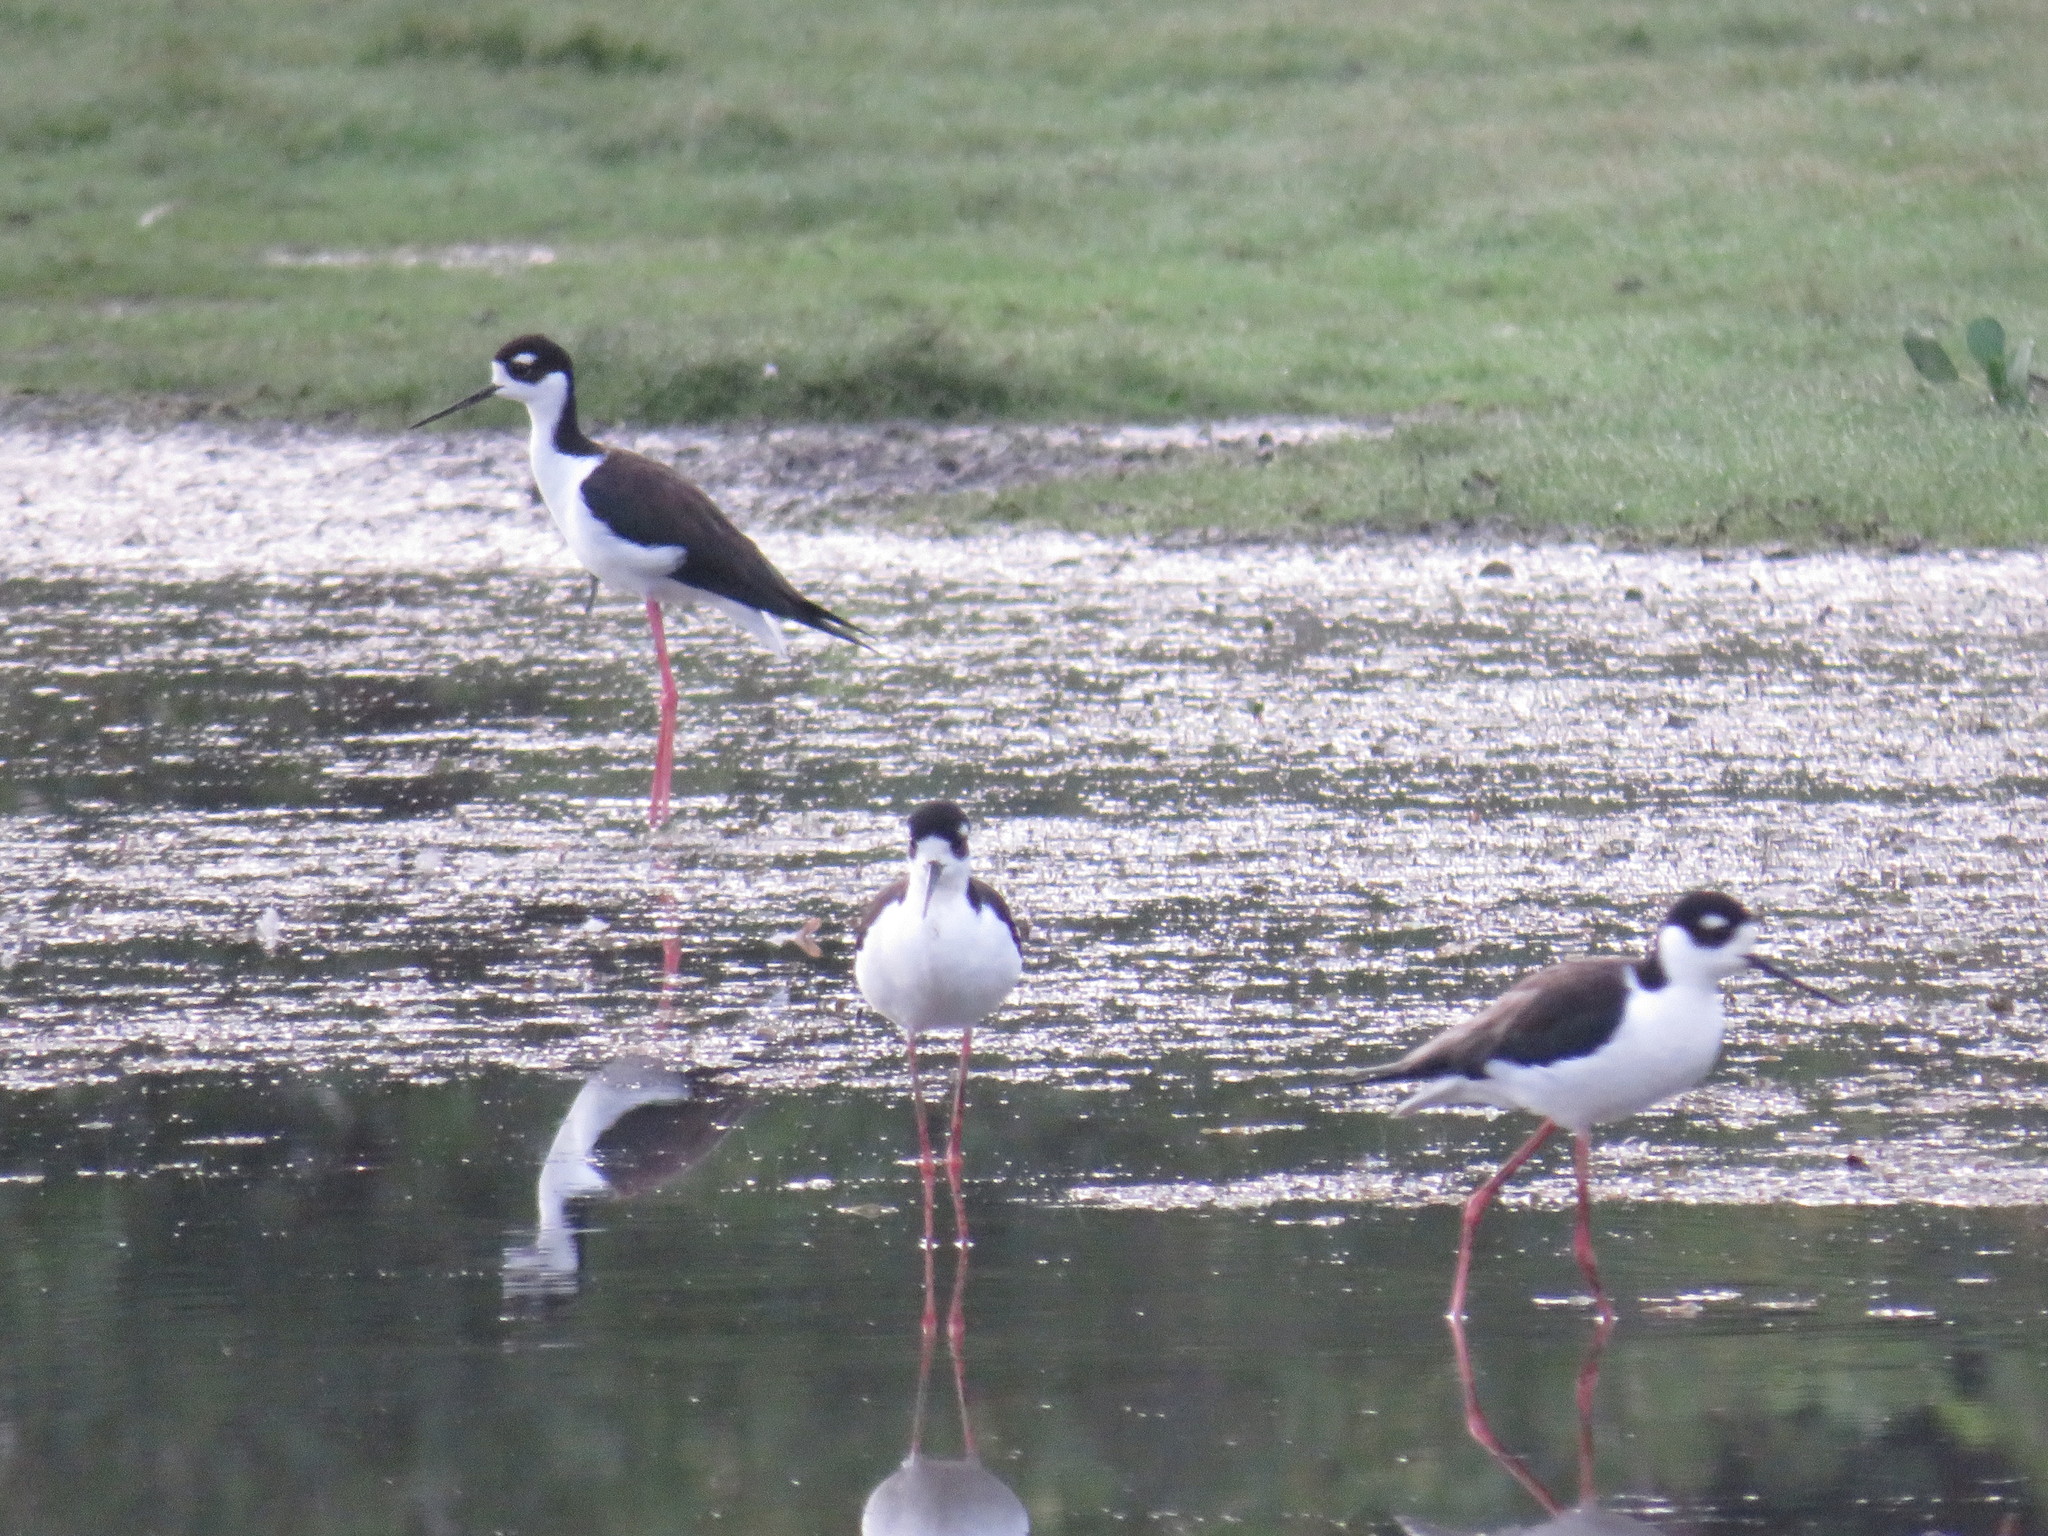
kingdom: Animalia
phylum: Chordata
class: Aves
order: Charadriiformes
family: Recurvirostridae
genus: Himantopus
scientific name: Himantopus mexicanus
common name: Black-necked stilt
